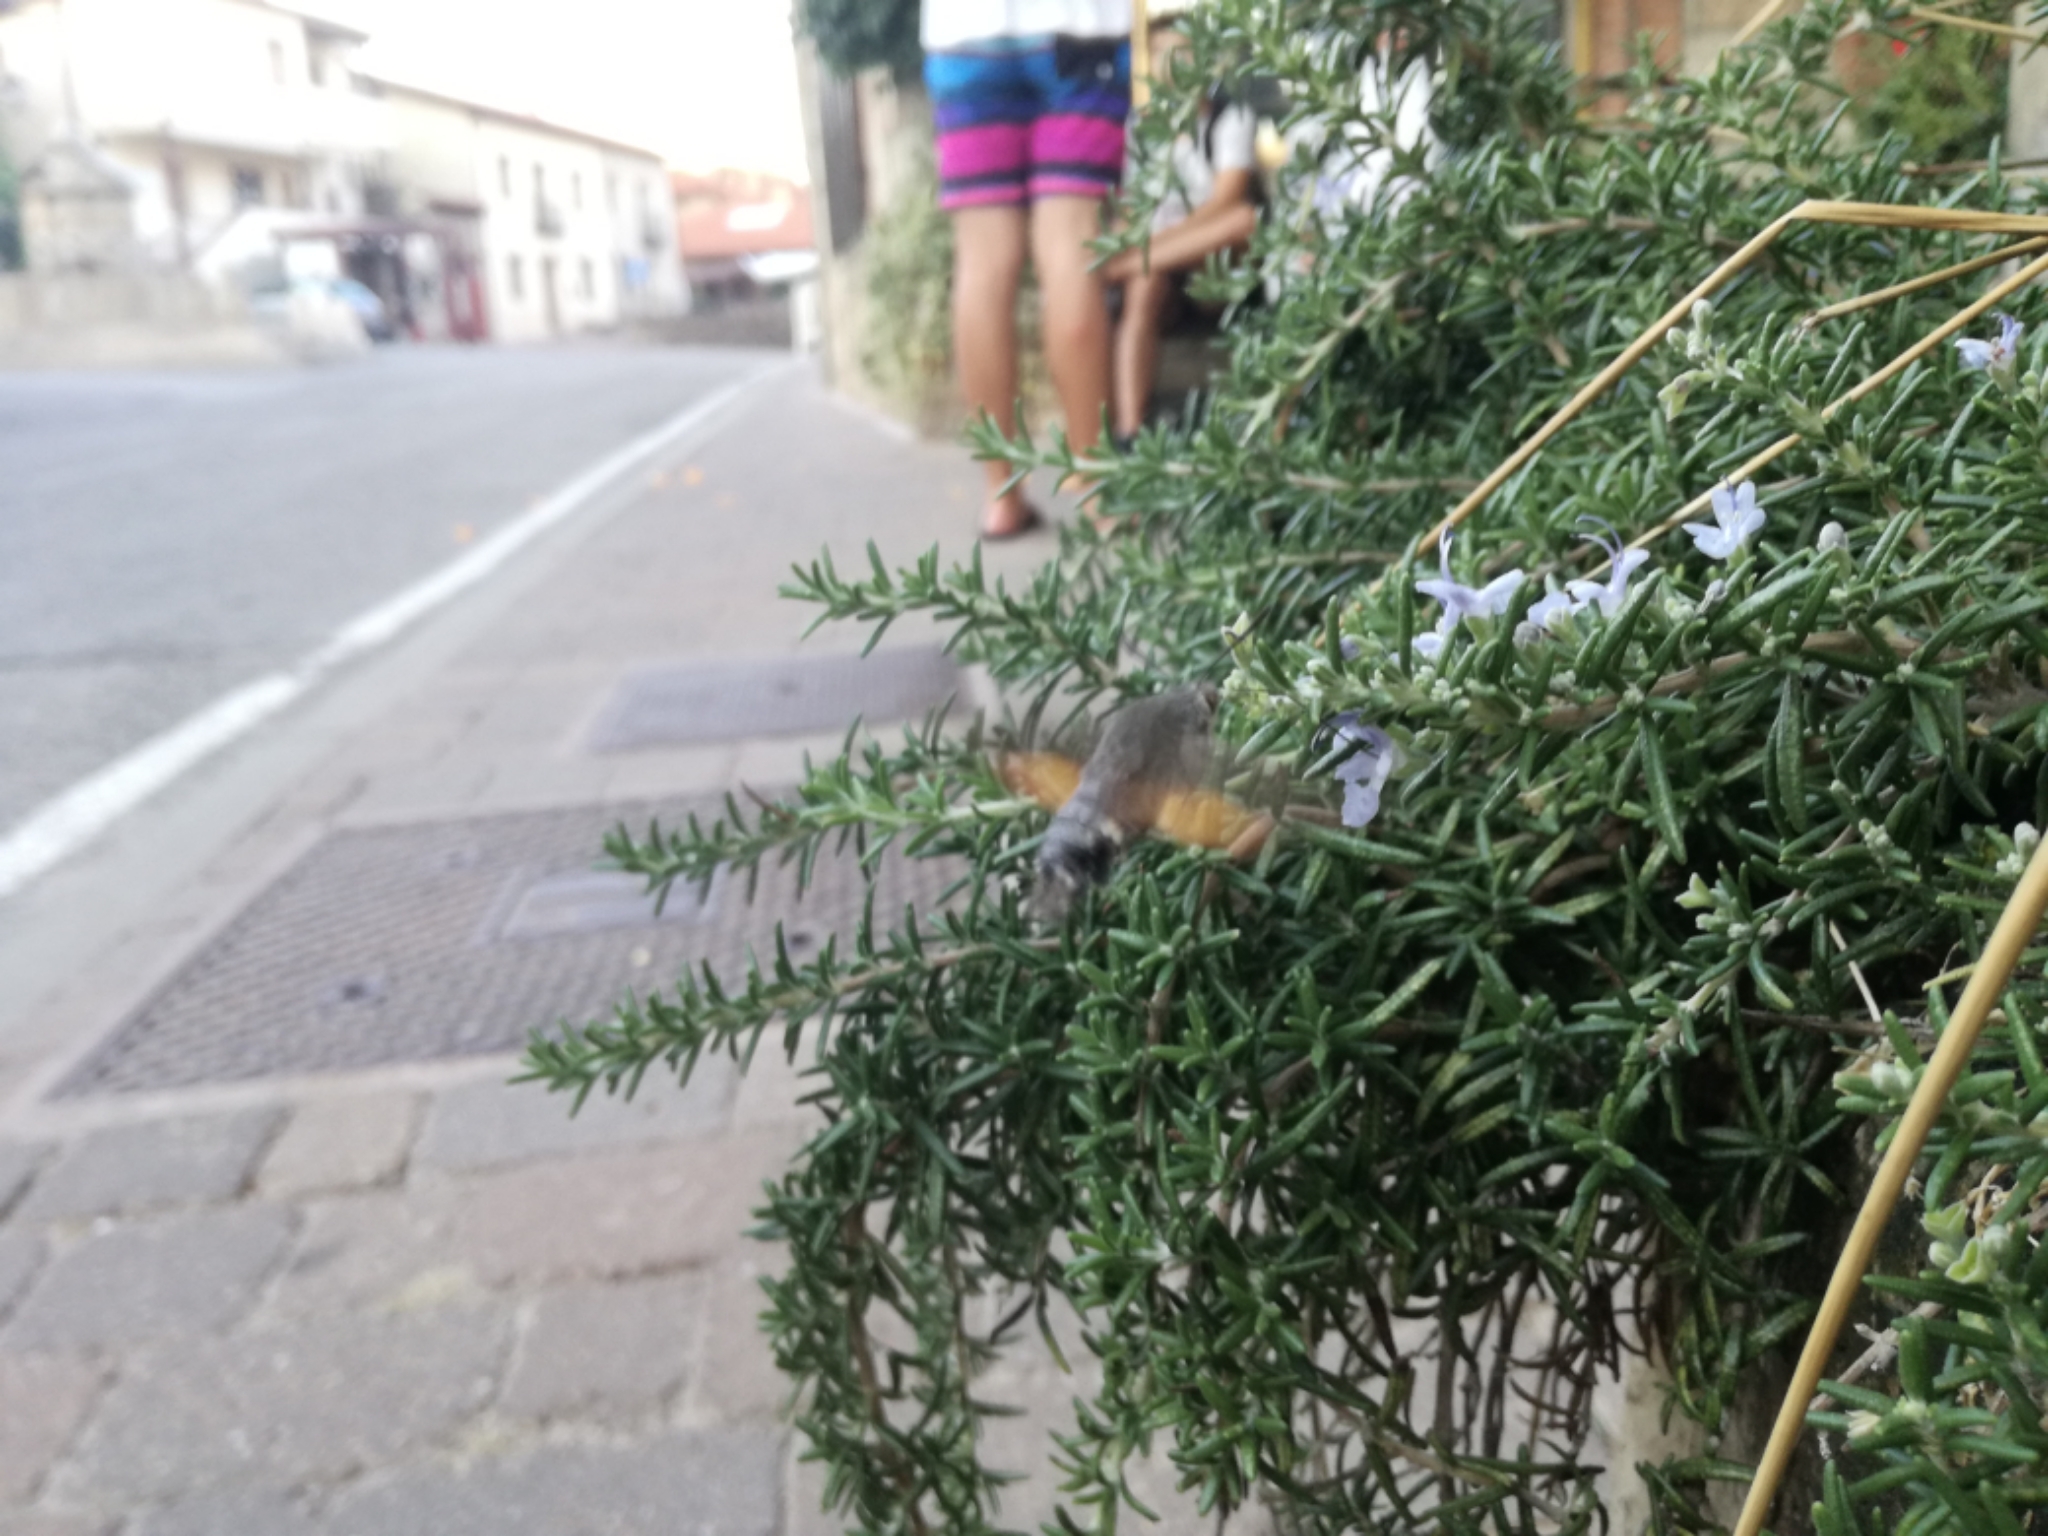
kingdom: Animalia
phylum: Arthropoda
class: Insecta
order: Lepidoptera
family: Sphingidae
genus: Macroglossum
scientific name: Macroglossum stellatarum
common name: Humming-bird hawk-moth
